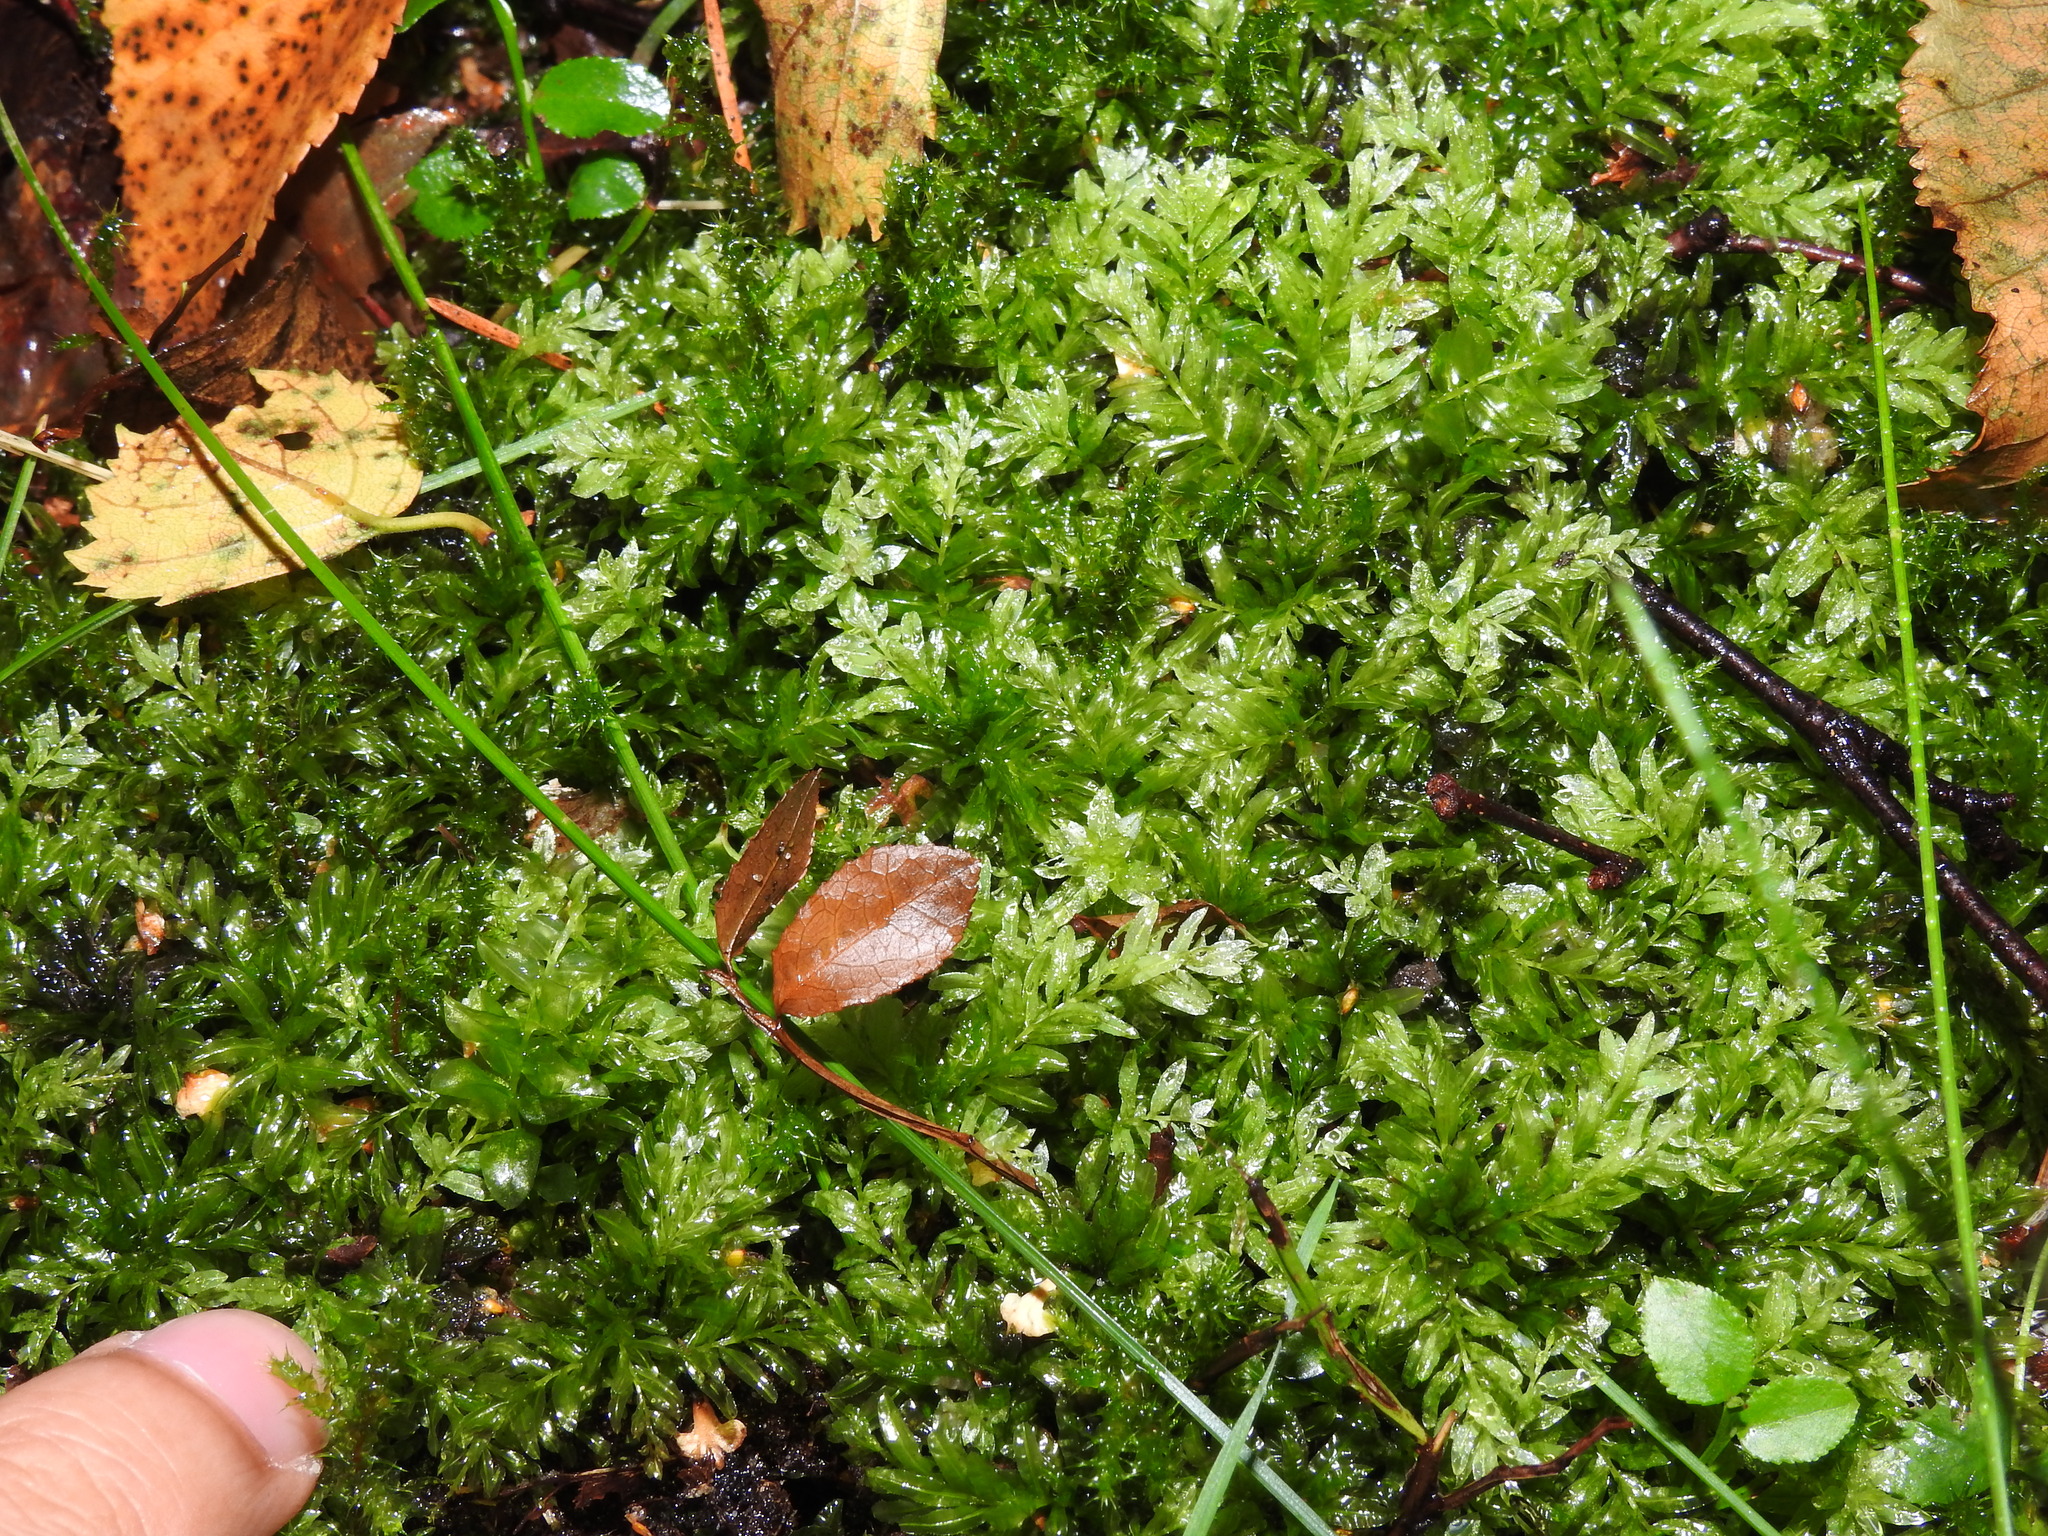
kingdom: Plantae
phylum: Bryophyta
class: Bryopsida
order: Bryales
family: Mniaceae
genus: Plagiomnium
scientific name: Plagiomnium undulatum
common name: Hart's-tongue thyme-moss
